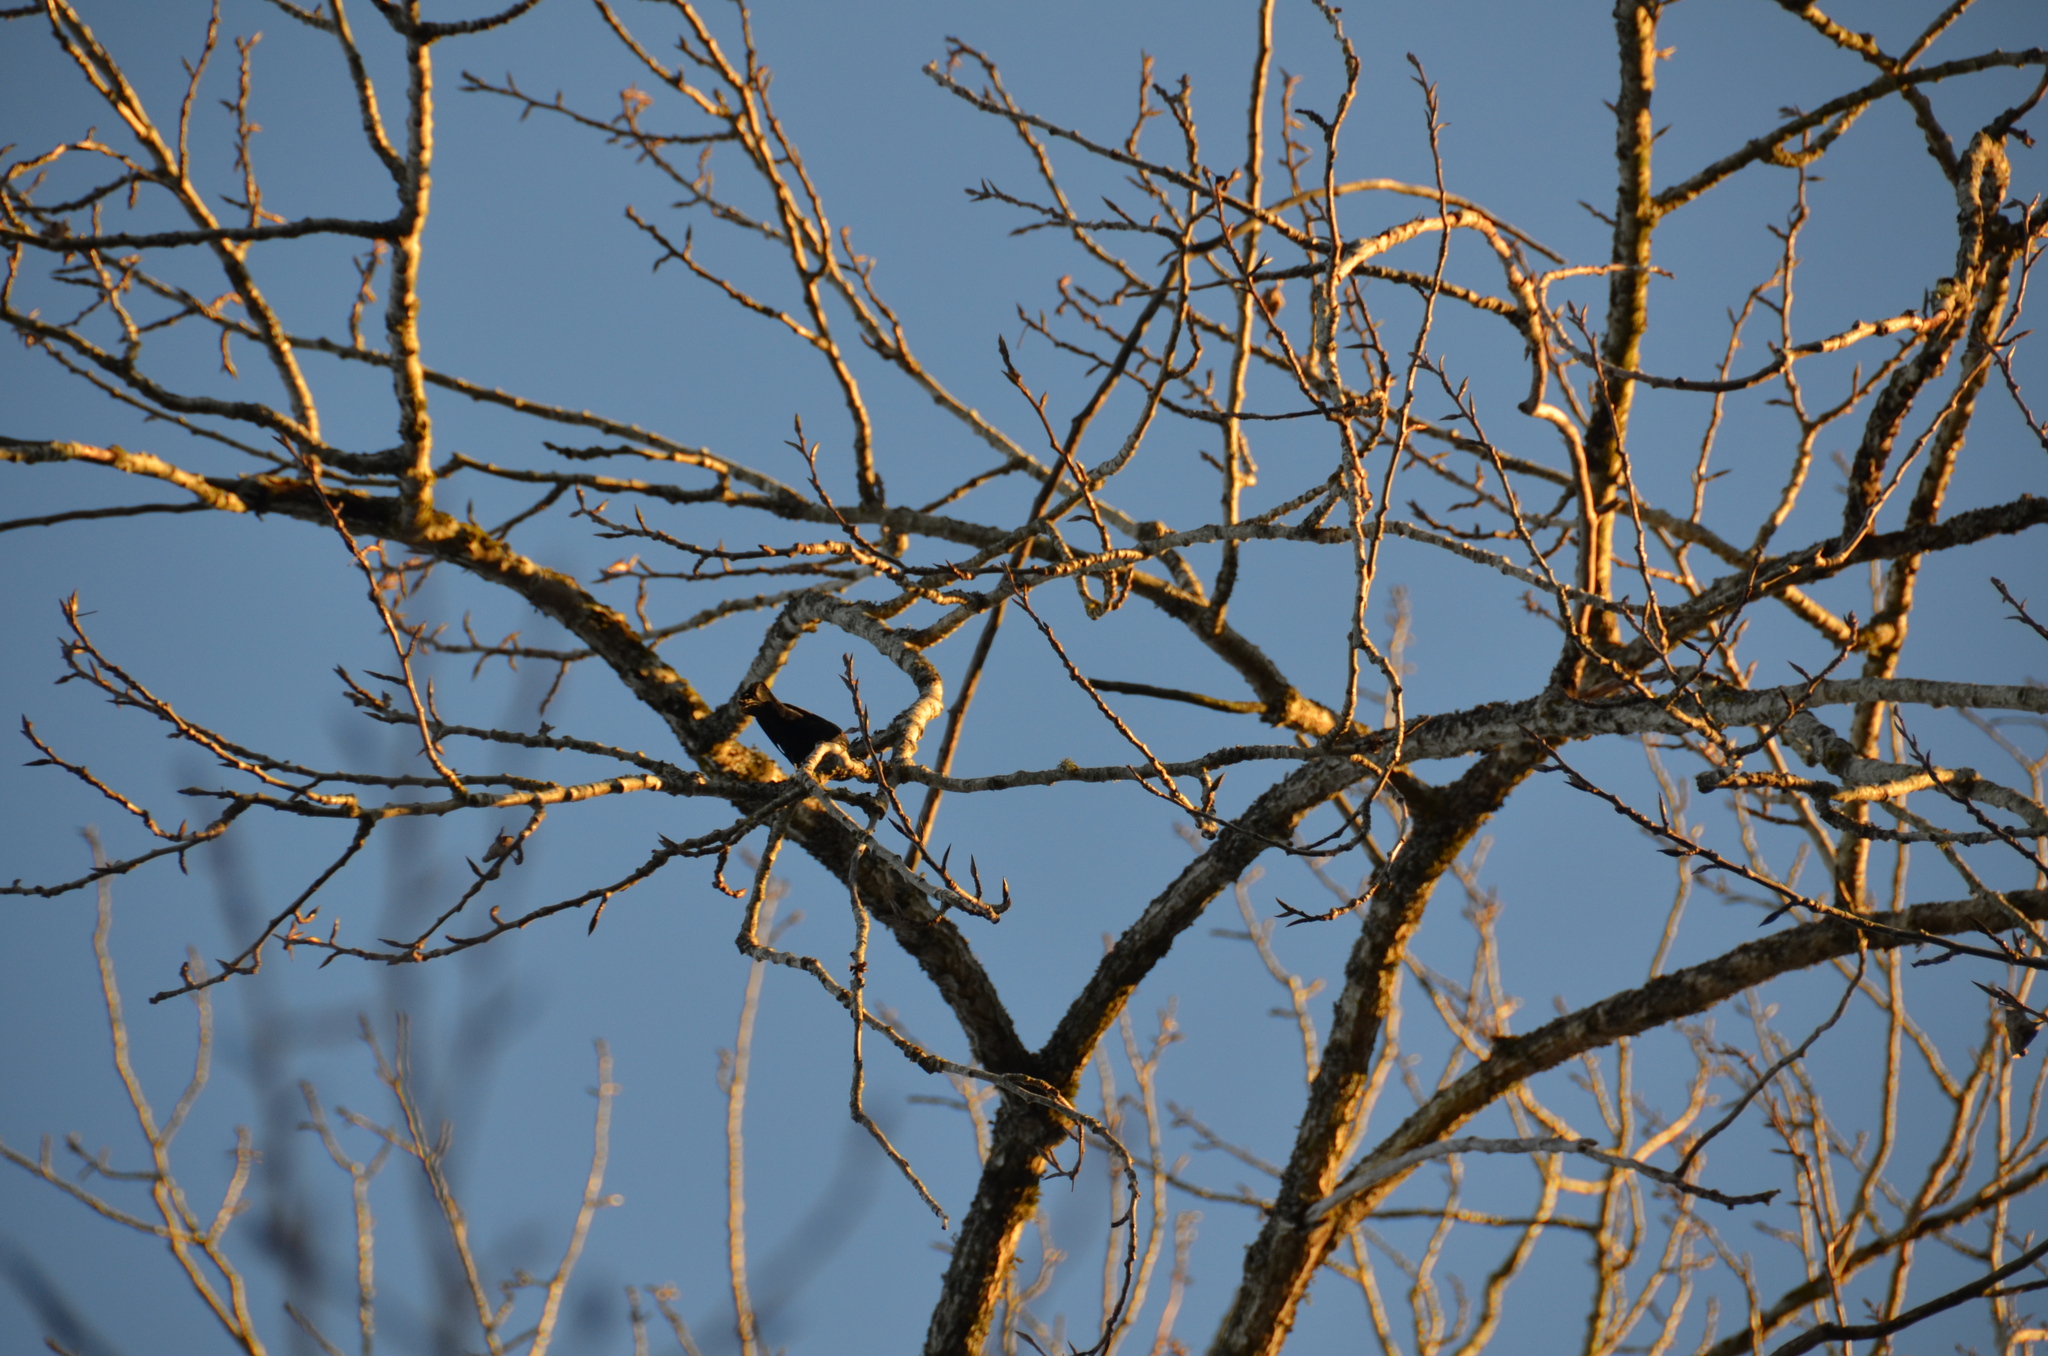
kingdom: Animalia
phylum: Chordata
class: Aves
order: Passeriformes
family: Icteridae
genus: Agelaius
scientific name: Agelaius phoeniceus
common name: Red-winged blackbird
